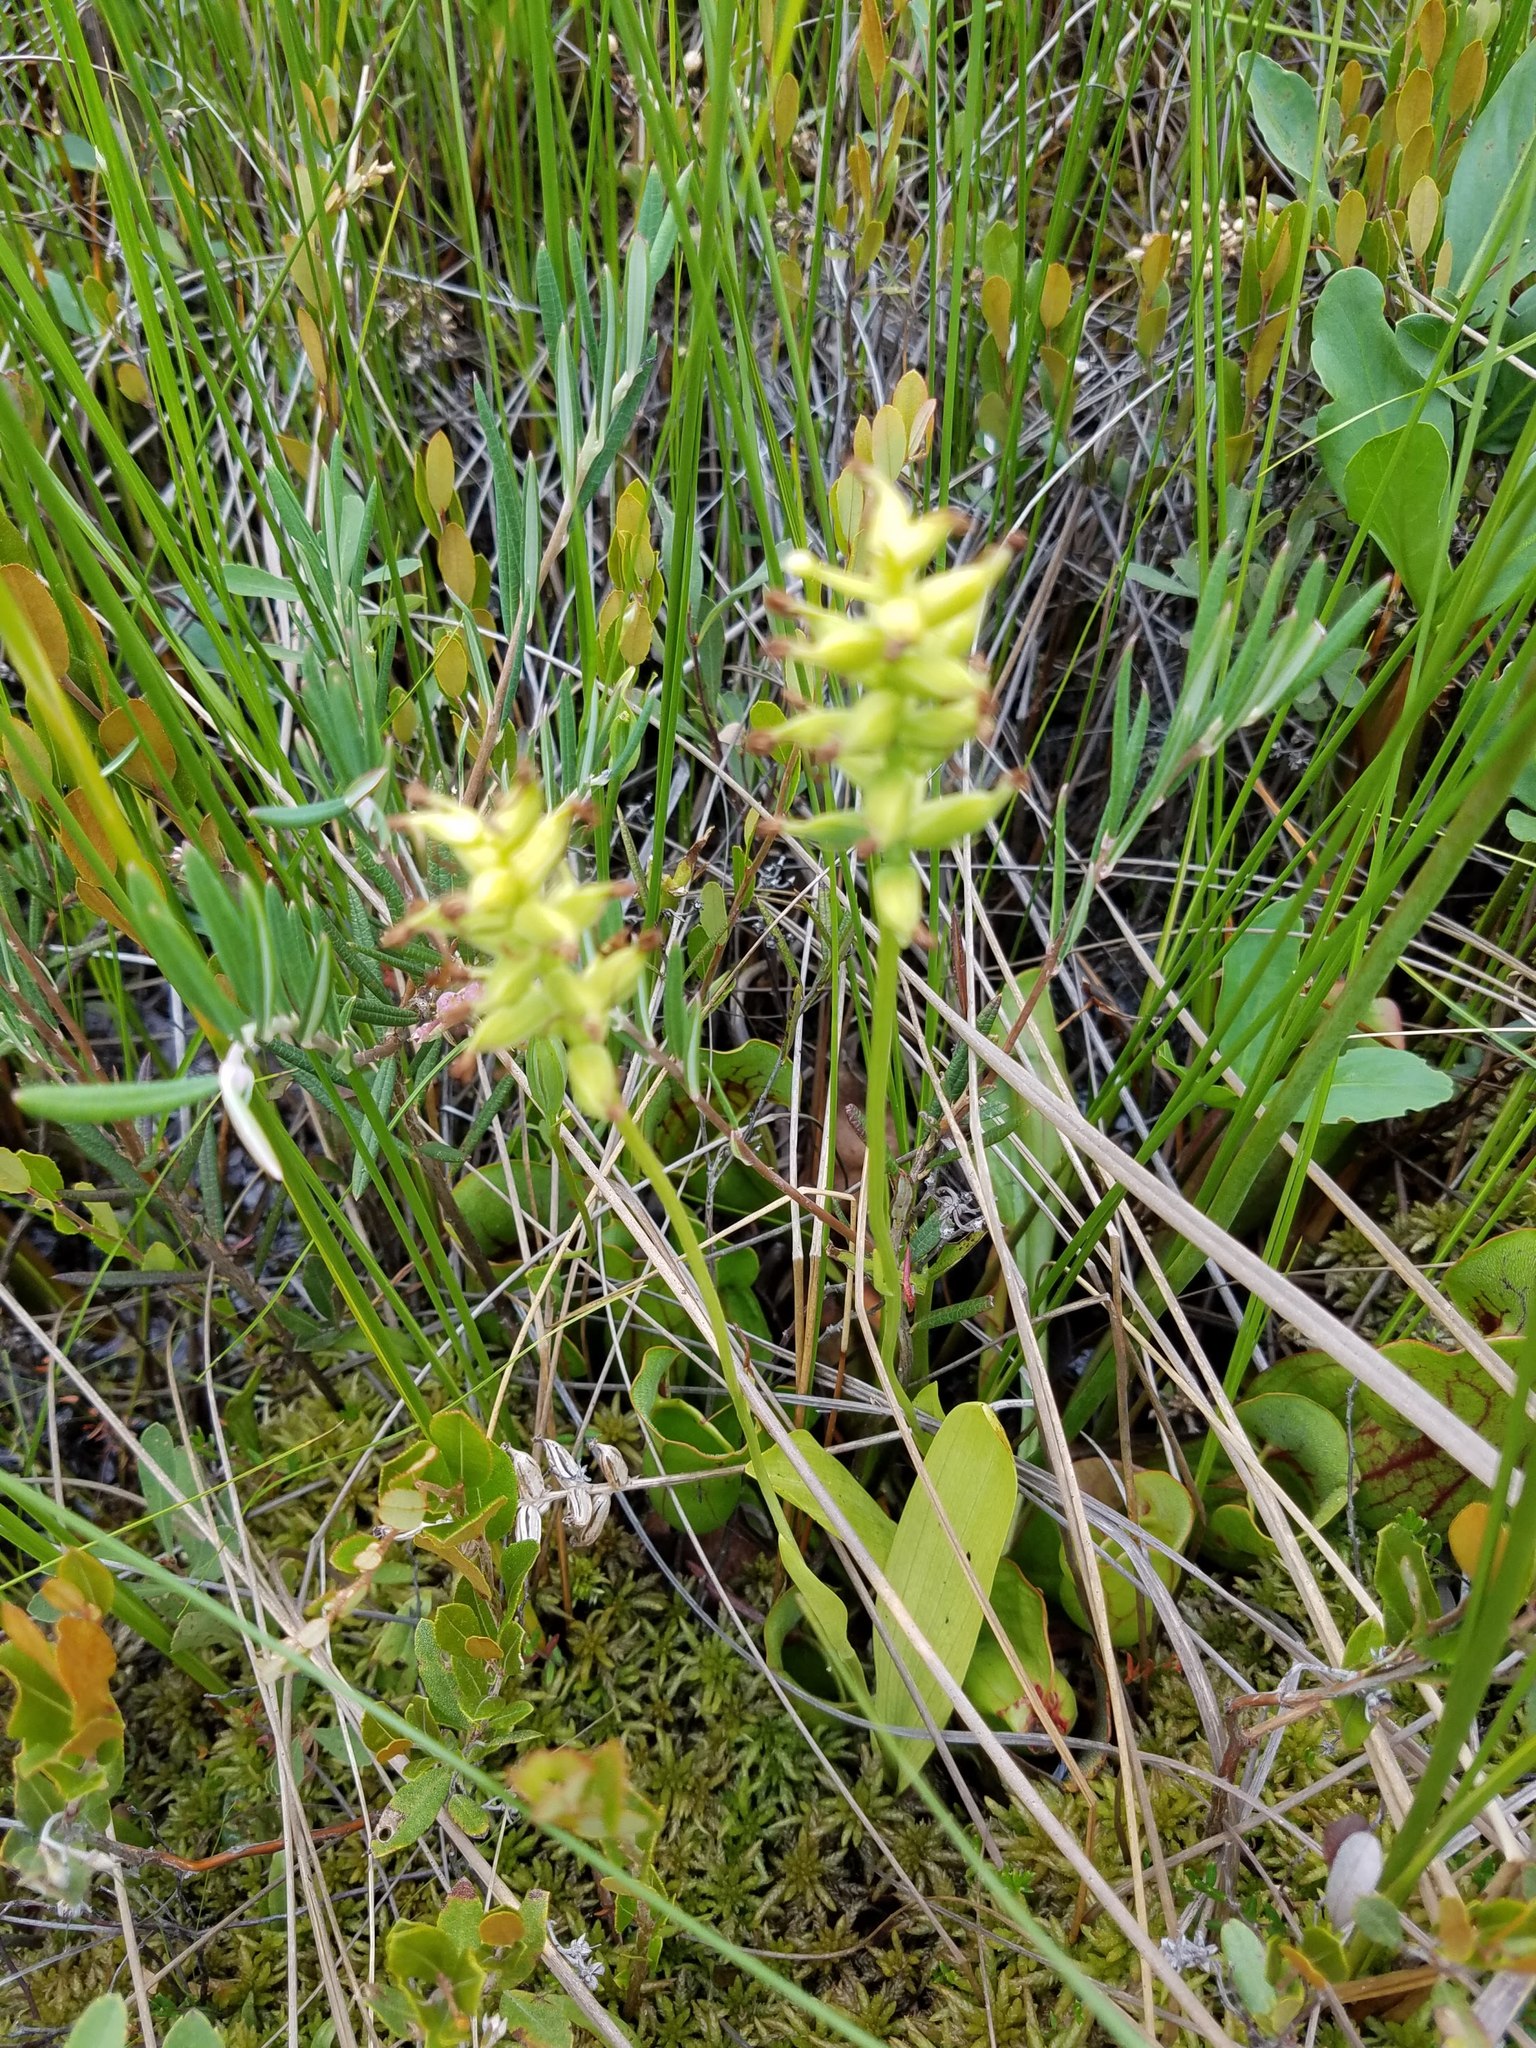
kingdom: Plantae
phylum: Tracheophyta
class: Liliopsida
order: Asparagales
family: Orchidaceae
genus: Platanthera
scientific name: Platanthera clavellata
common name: Club-spur orchid
